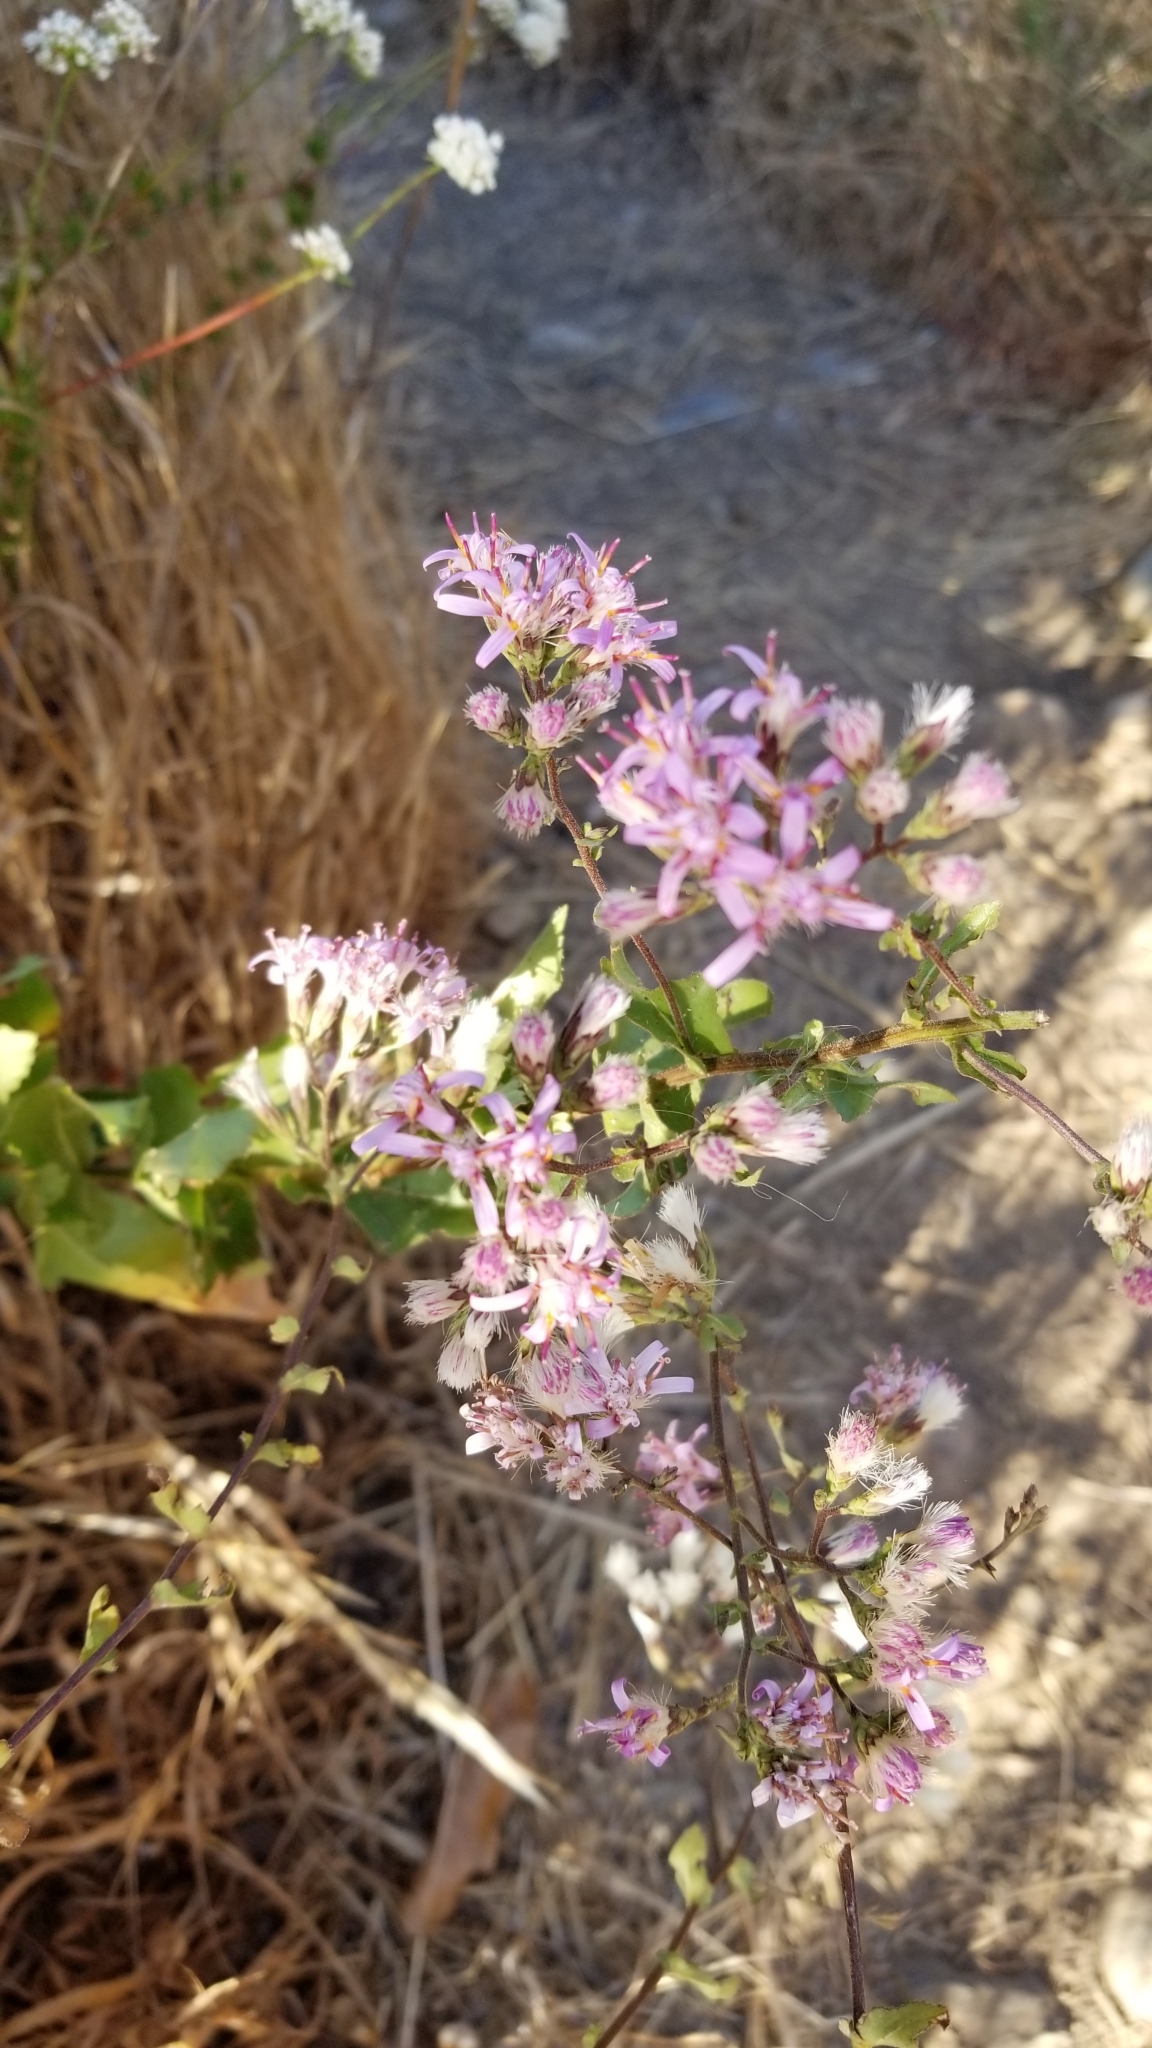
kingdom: Plantae
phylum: Tracheophyta
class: Magnoliopsida
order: Asterales
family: Asteraceae
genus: Acourtia
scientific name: Acourtia microcephala
